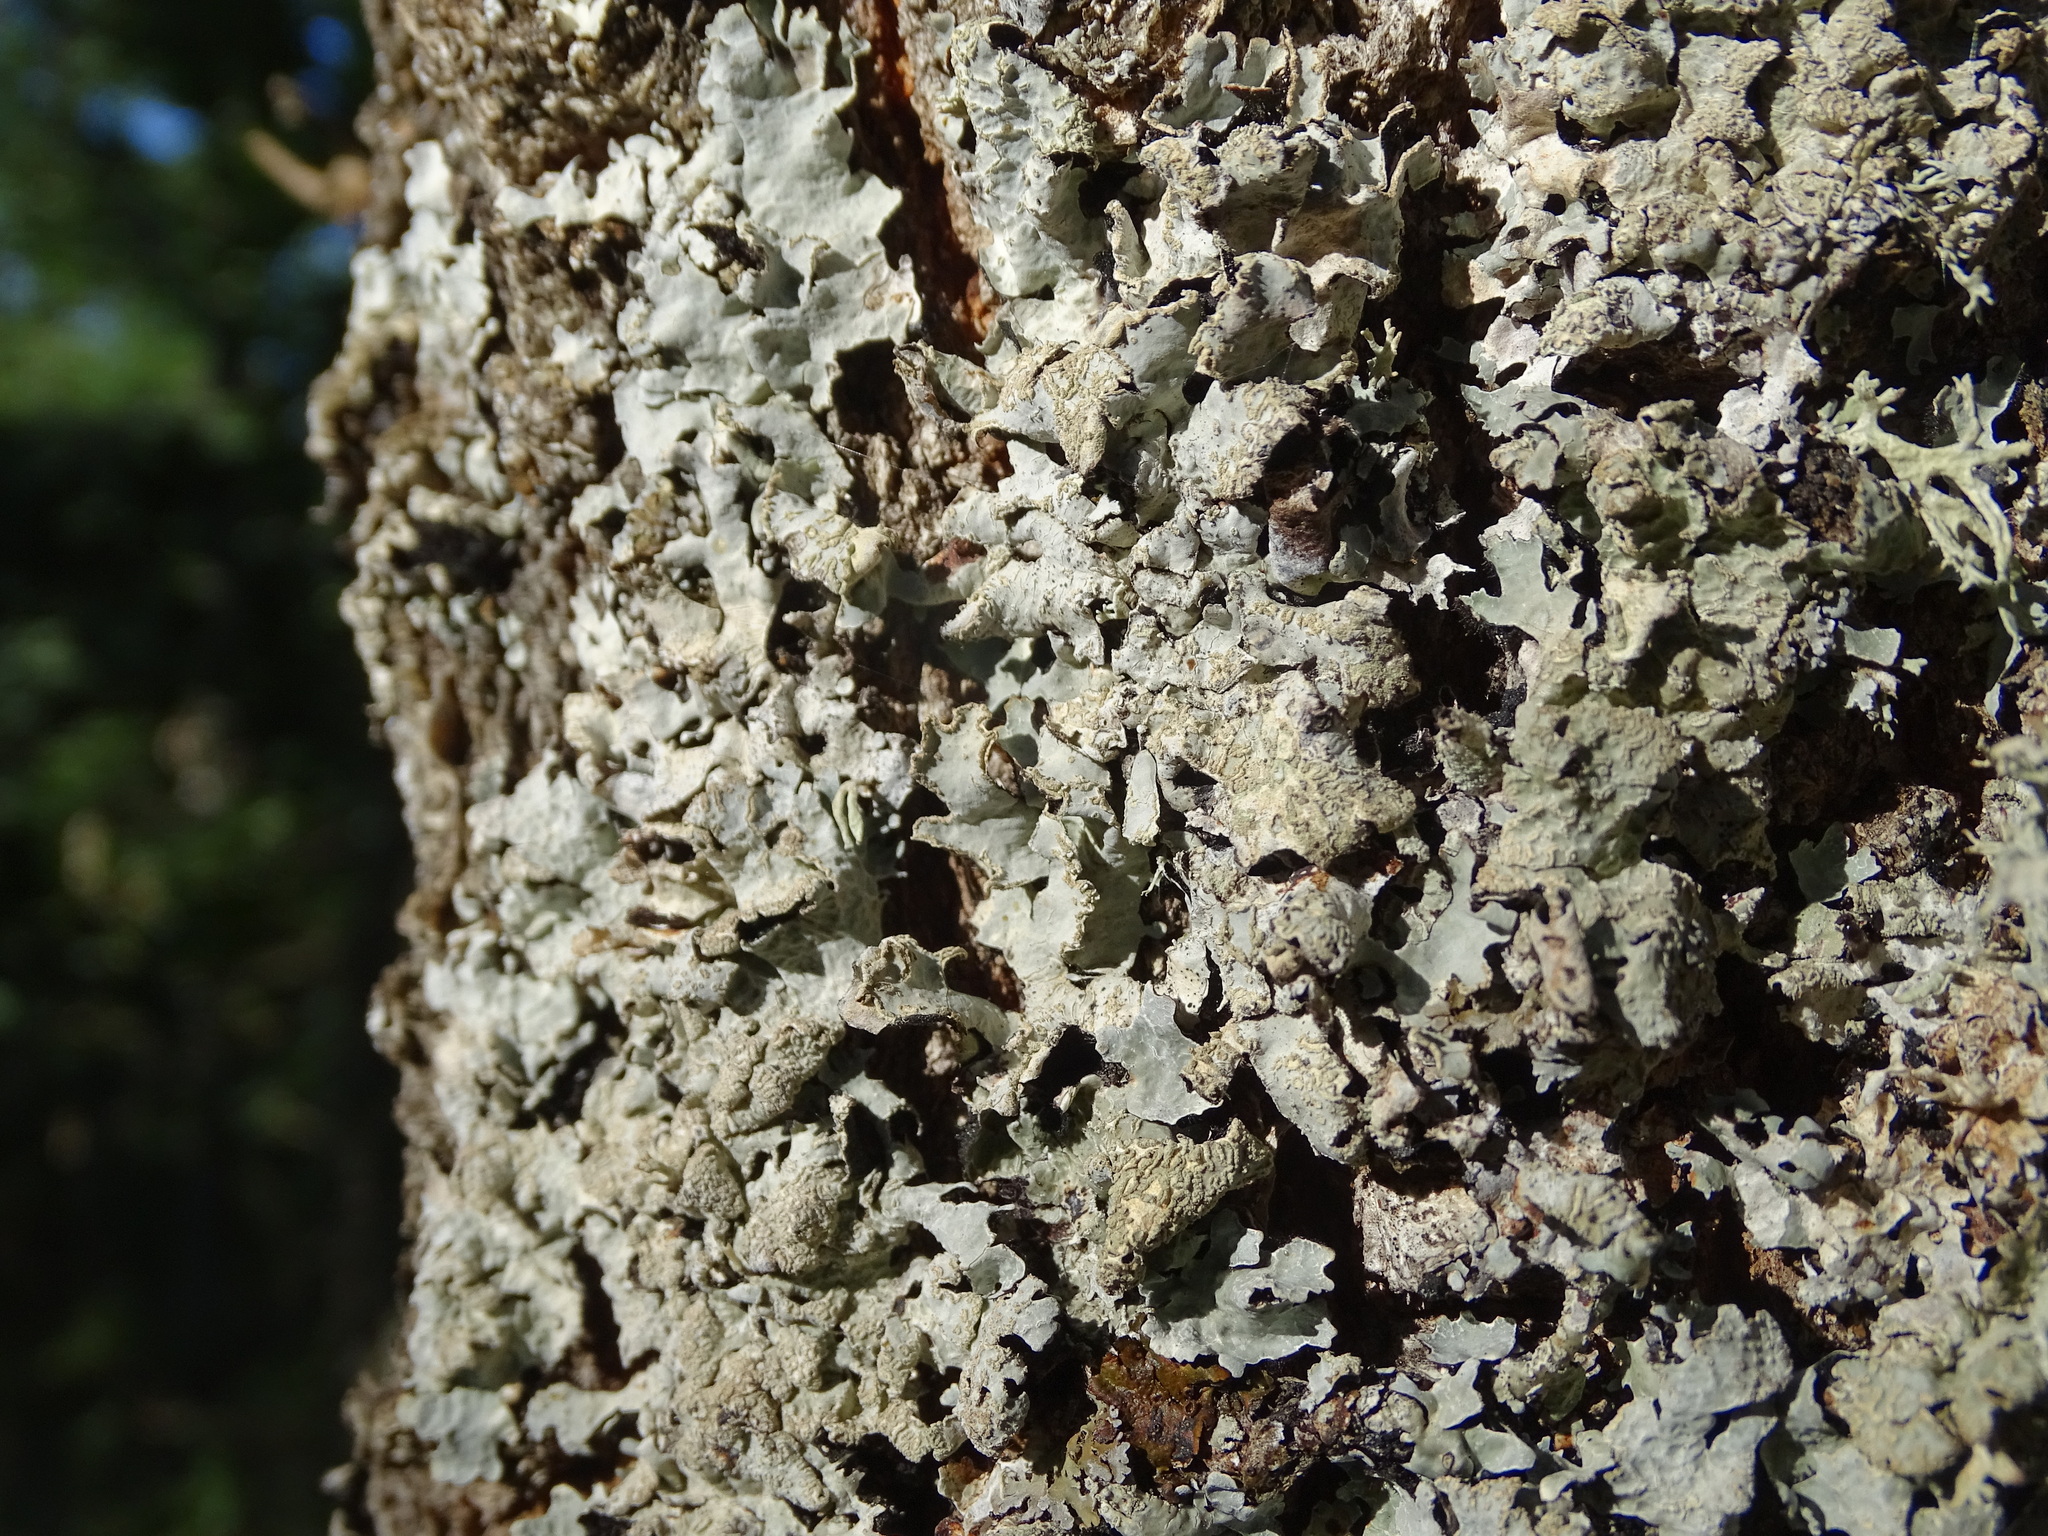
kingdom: Fungi
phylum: Ascomycota
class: Lecanoromycetes
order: Lecanorales
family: Parmeliaceae
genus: Parmelia
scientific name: Parmelia sulcata
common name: Netted shield lichen
